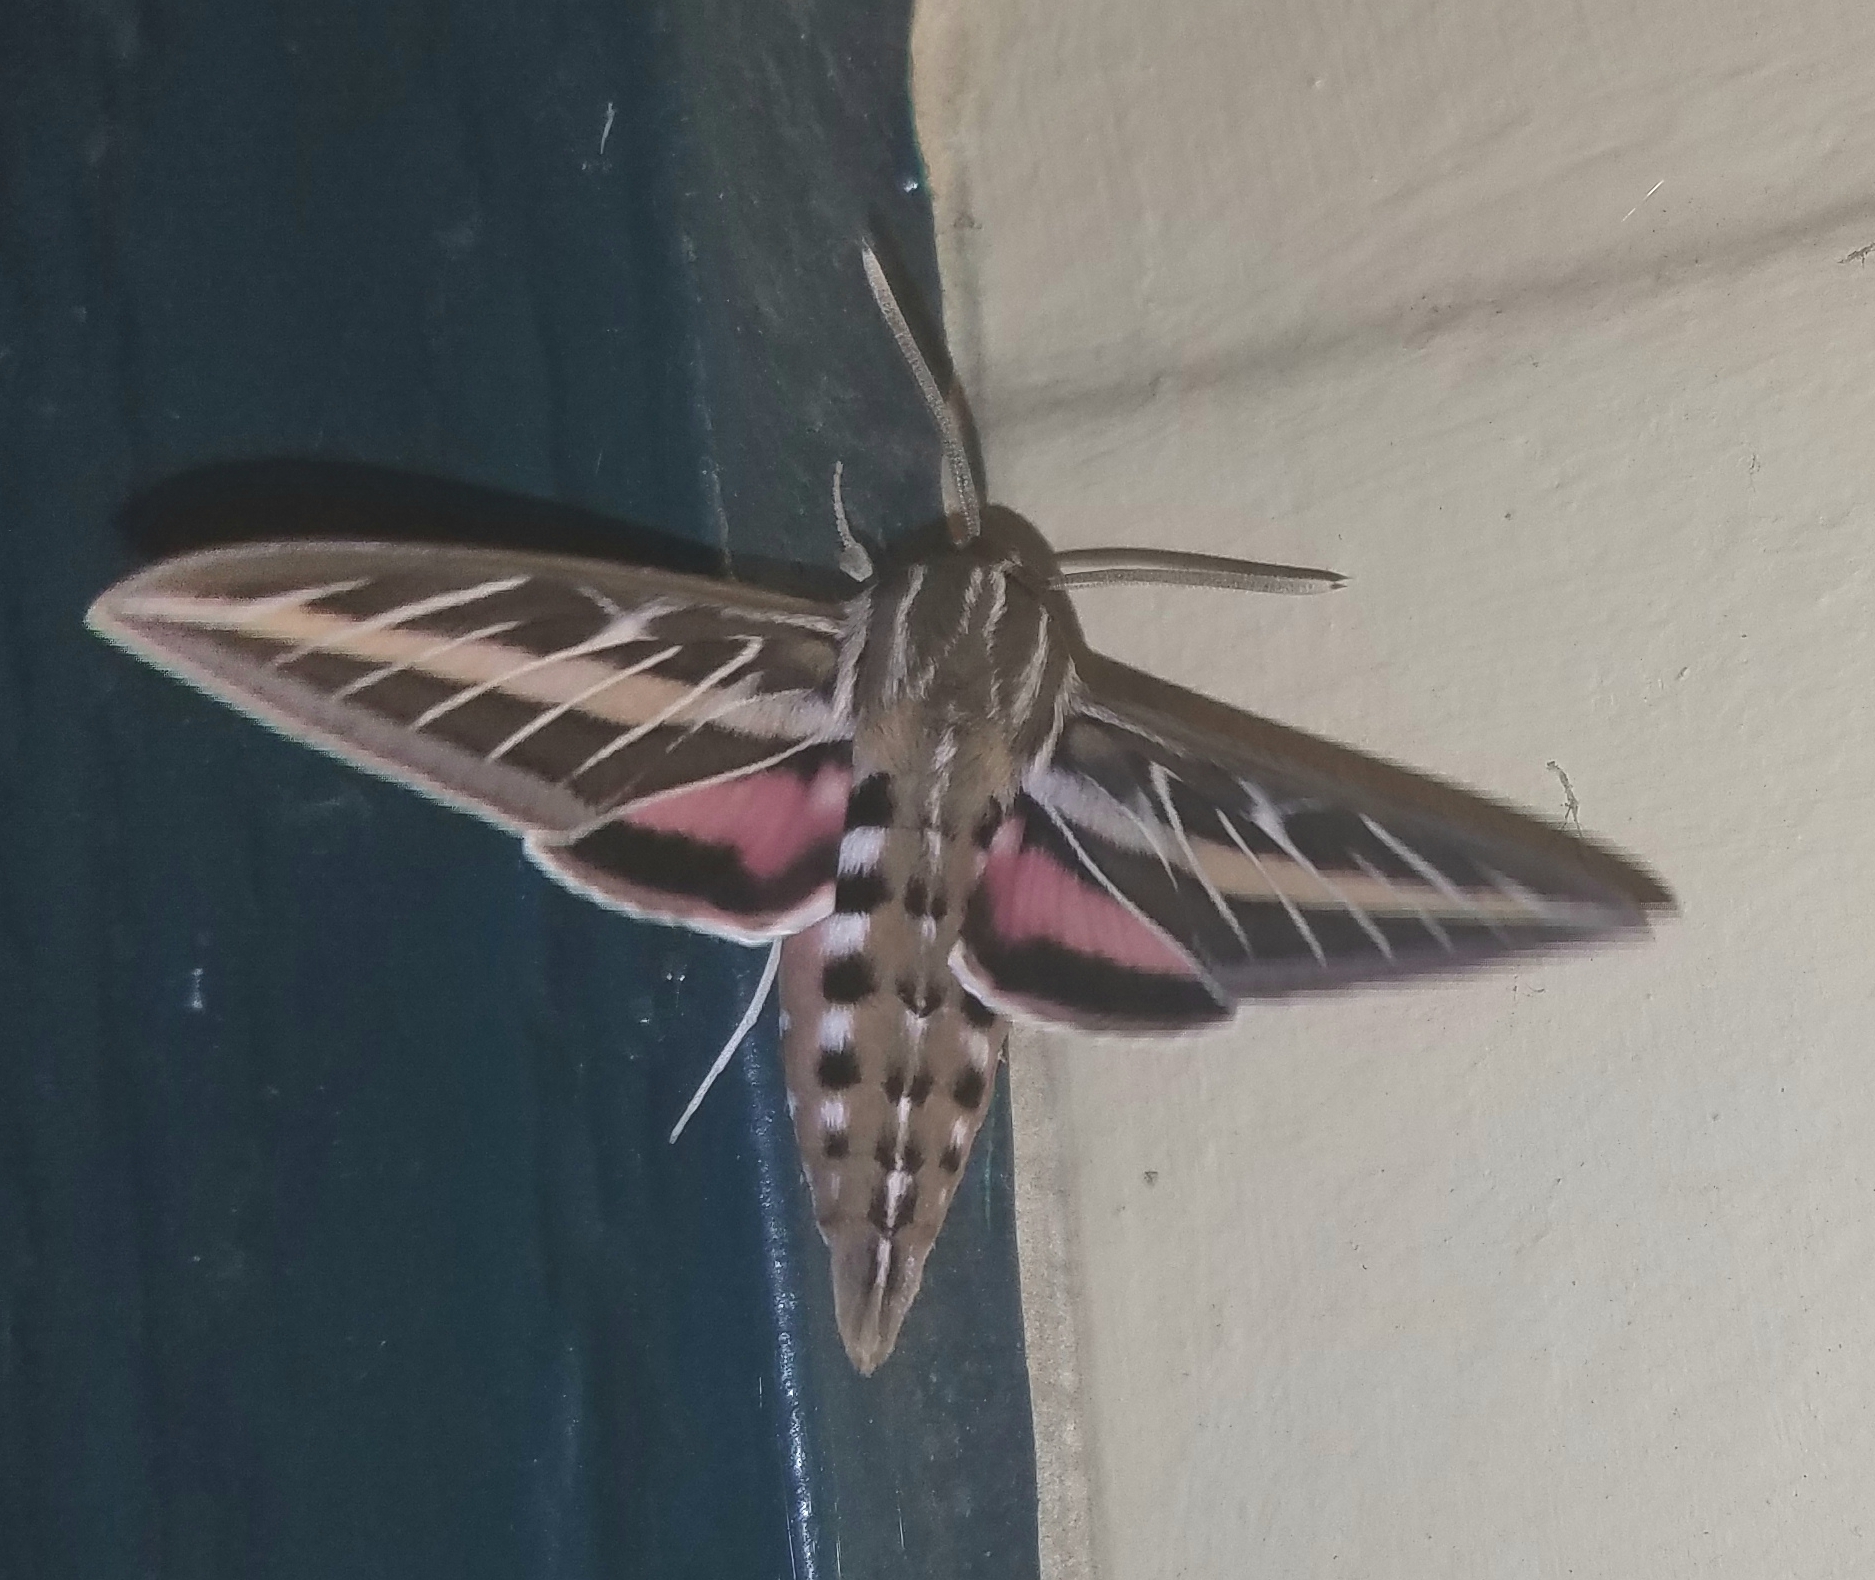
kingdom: Animalia
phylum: Arthropoda
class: Insecta
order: Lepidoptera
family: Sphingidae
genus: Hyles
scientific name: Hyles lineata
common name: White-lined sphinx
